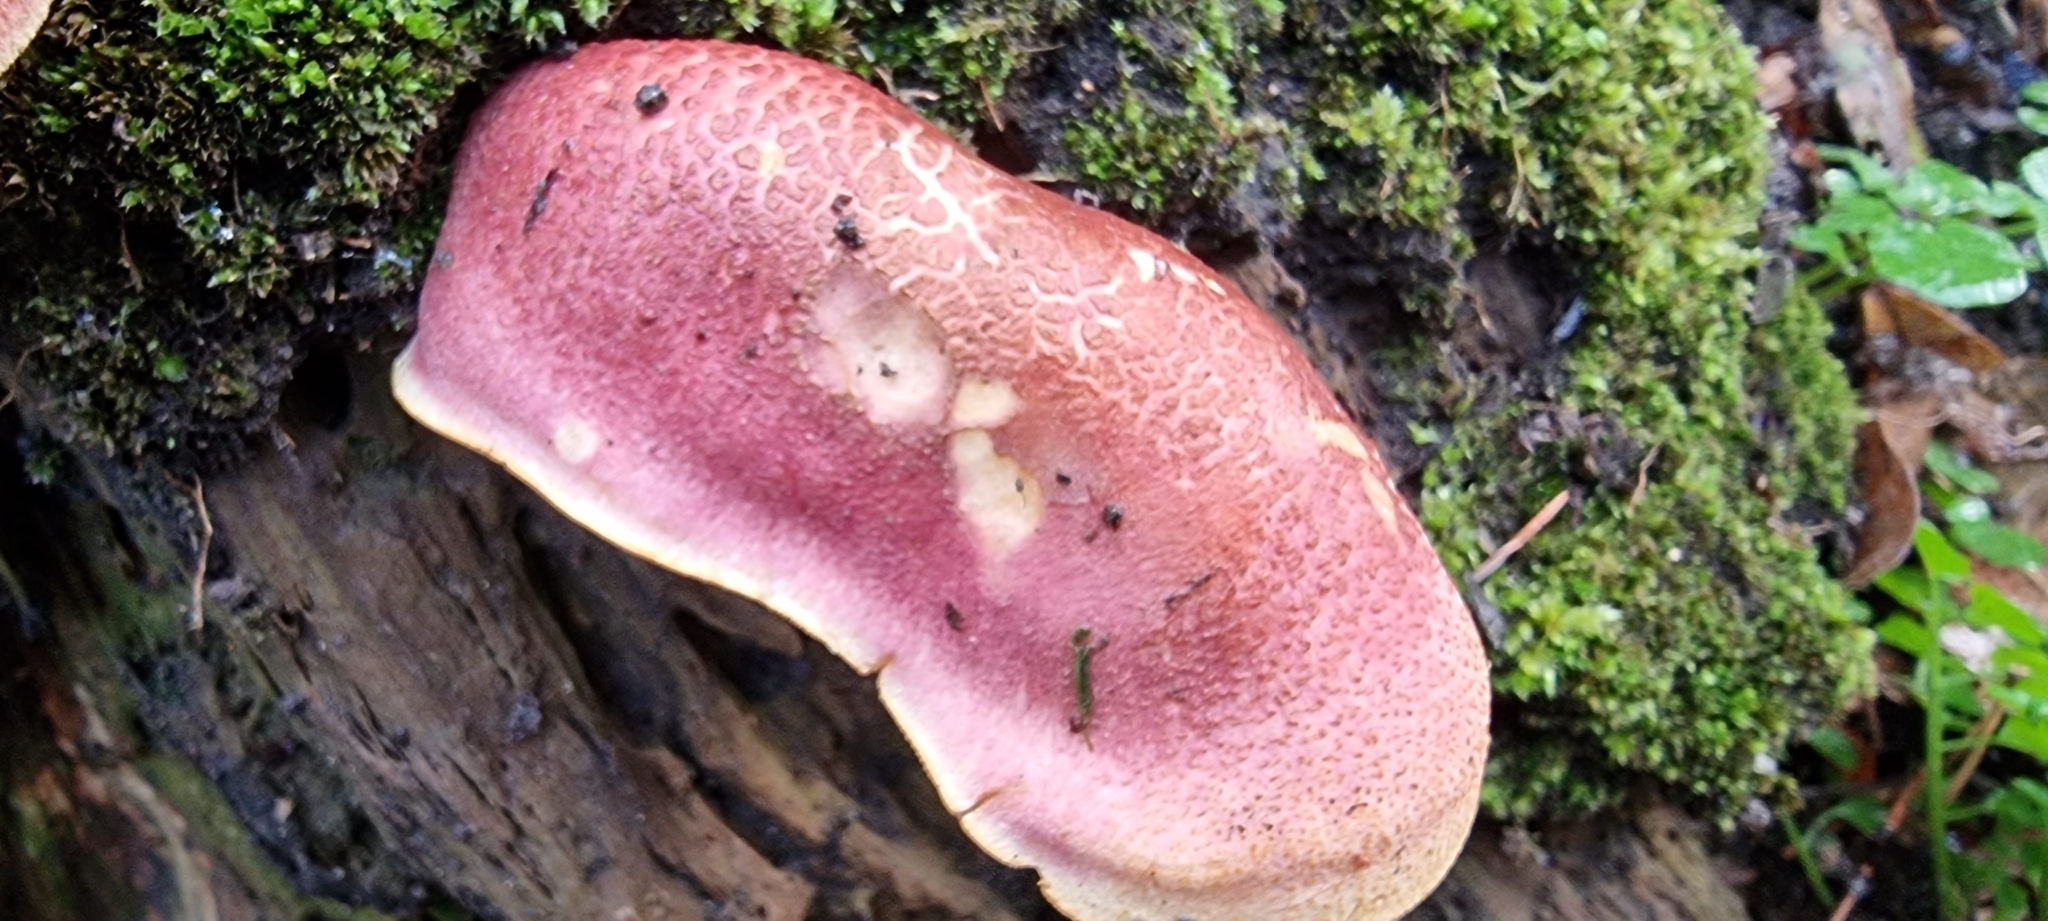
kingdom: Fungi
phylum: Basidiomycota
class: Agaricomycetes
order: Agaricales
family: Tricholomataceae
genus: Tricholomopsis
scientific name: Tricholomopsis rutilans
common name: Plums and custard
